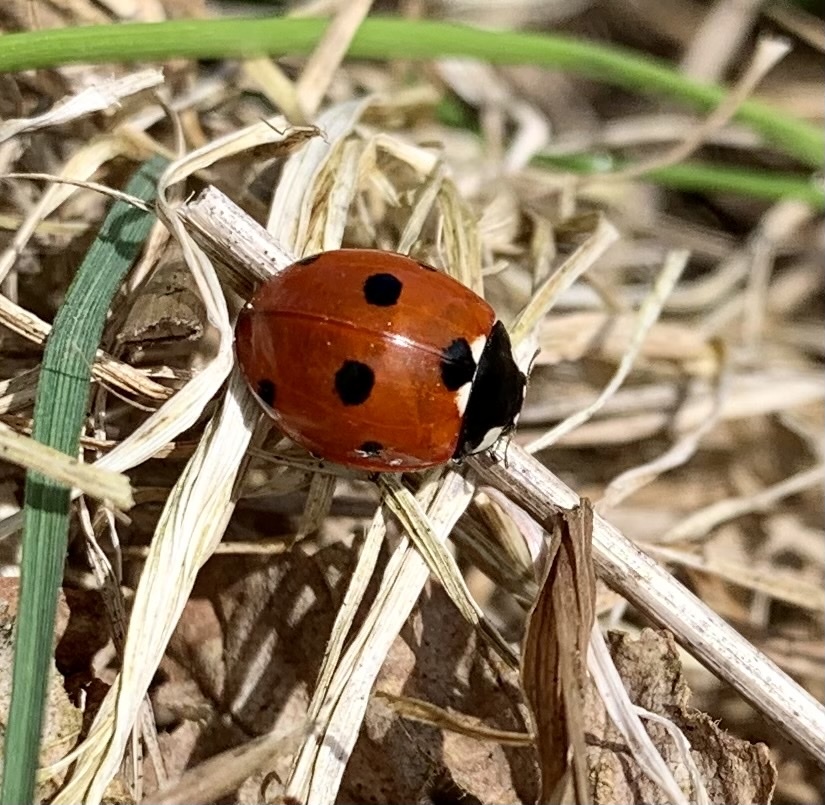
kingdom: Animalia
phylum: Arthropoda
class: Insecta
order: Coleoptera
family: Coccinellidae
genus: Coccinella
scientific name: Coccinella septempunctata
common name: Sevenspotted lady beetle
